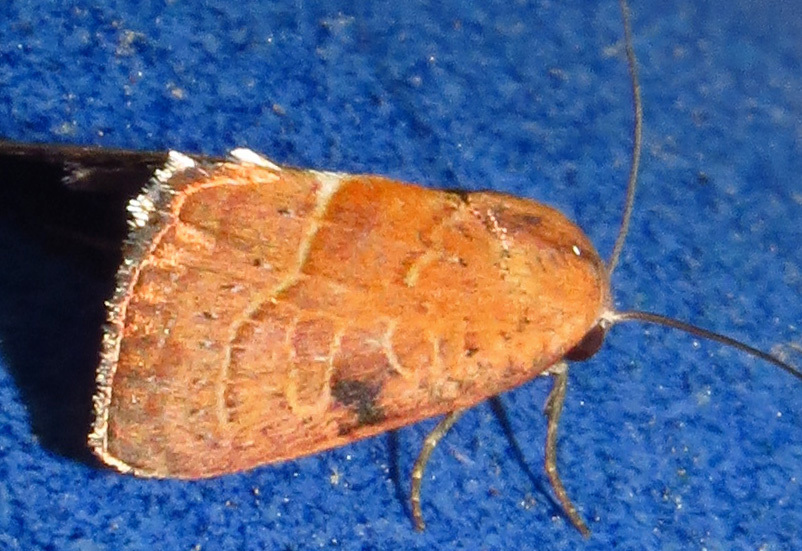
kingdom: Animalia
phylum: Arthropoda
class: Insecta
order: Lepidoptera
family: Noctuidae
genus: Galgula
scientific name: Galgula partita
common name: Wedgeling
